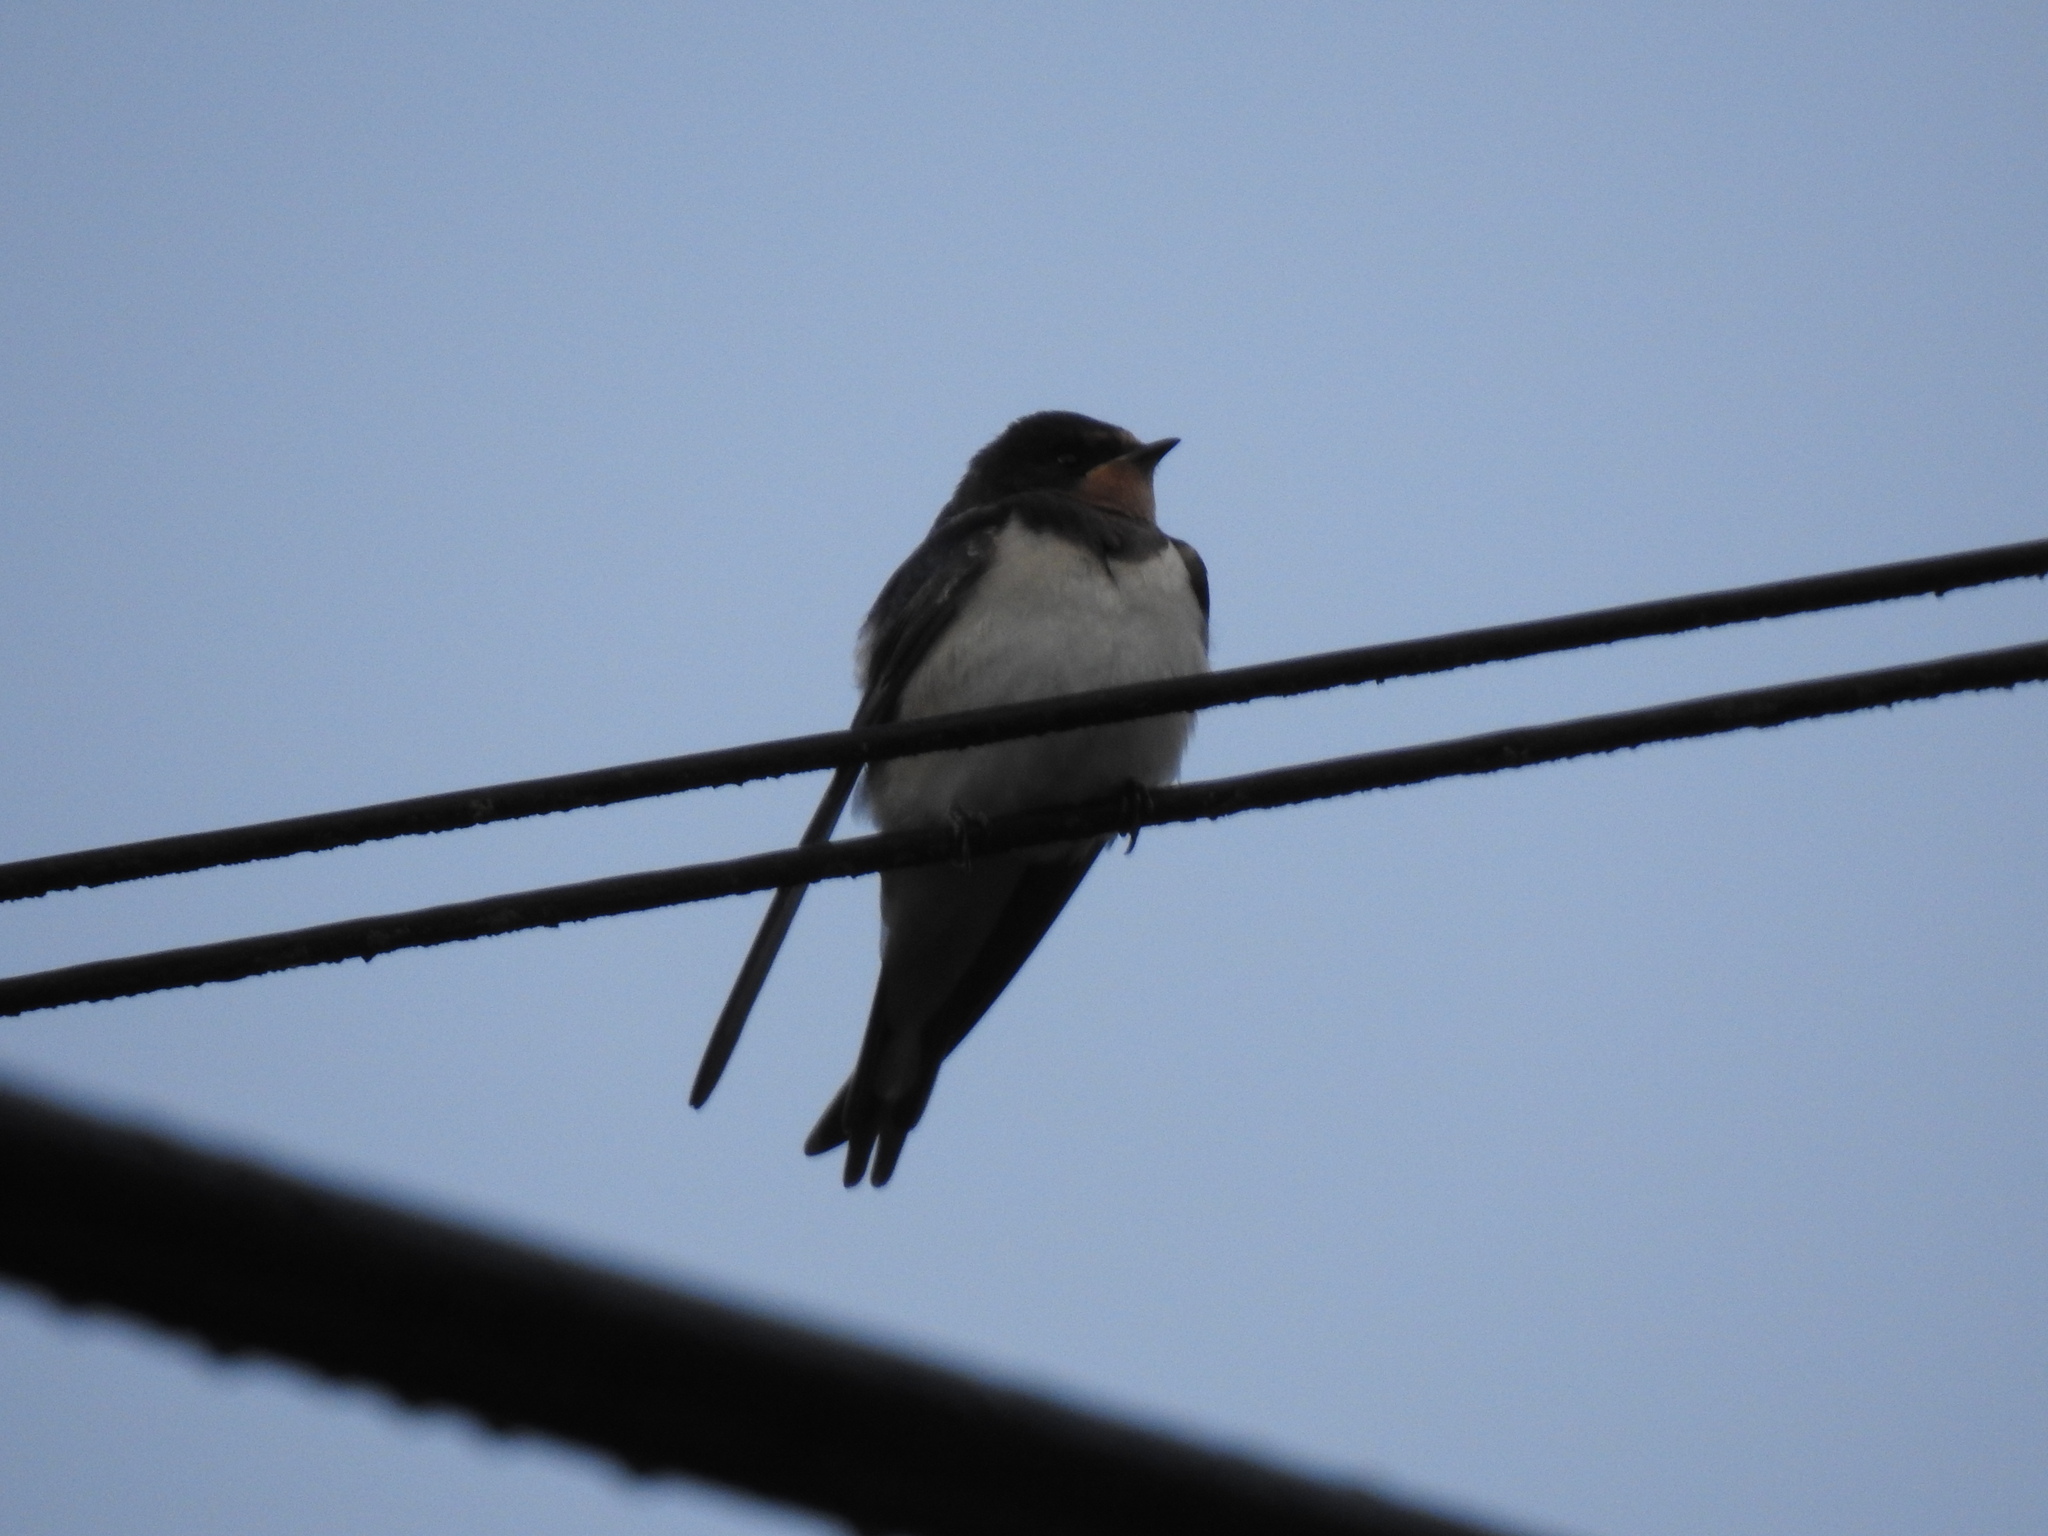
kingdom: Animalia
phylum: Chordata
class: Aves
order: Passeriformes
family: Hirundinidae
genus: Hirundo
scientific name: Hirundo rustica
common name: Barn swallow
